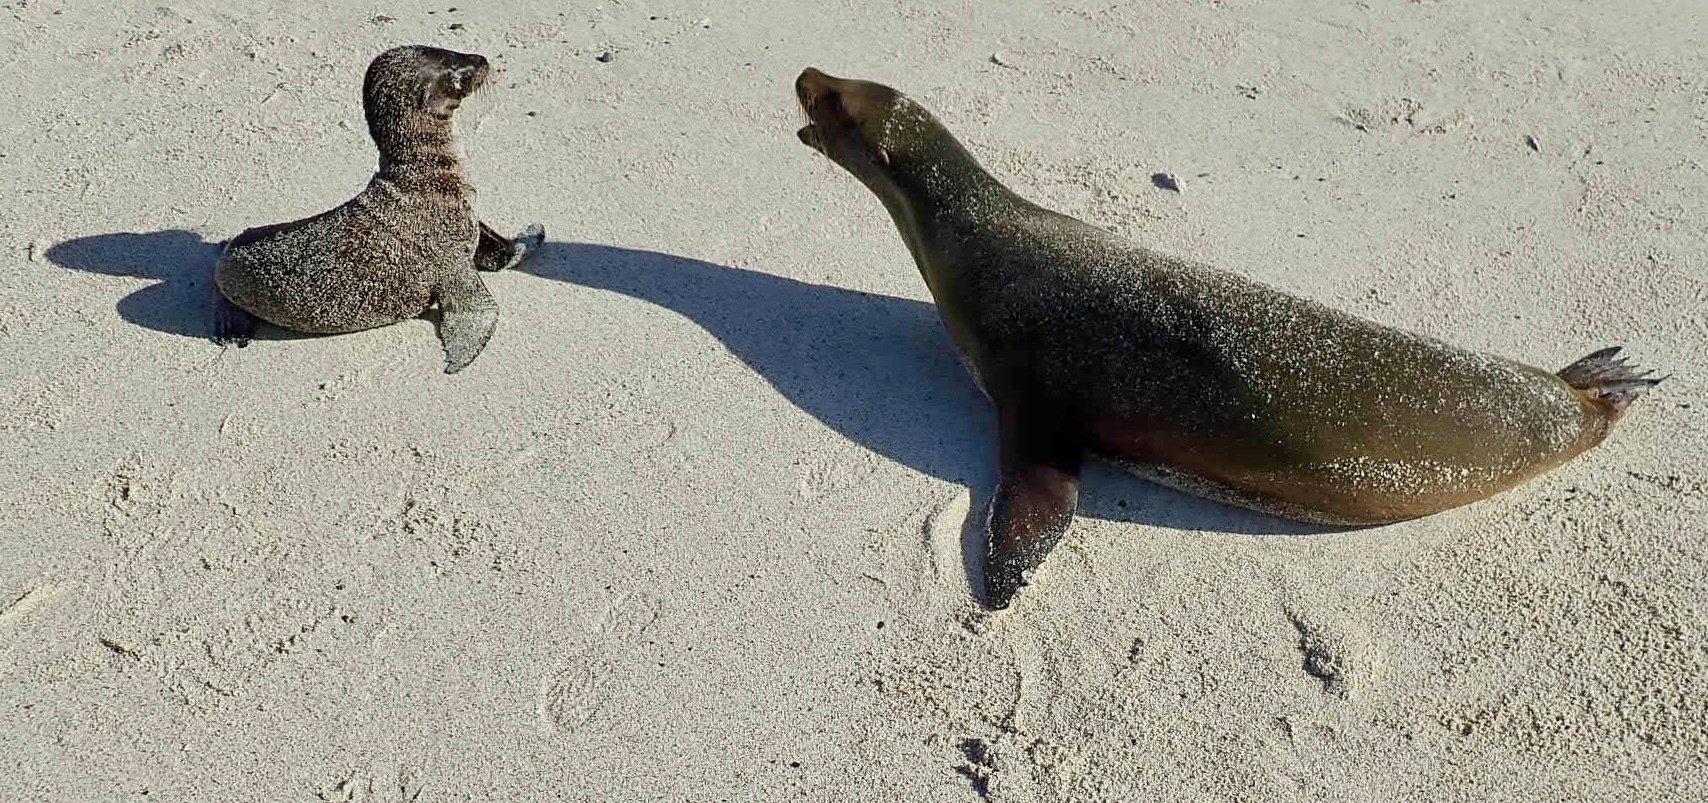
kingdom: Animalia
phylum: Chordata
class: Mammalia
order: Carnivora
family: Otariidae
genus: Zalophus
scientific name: Zalophus wollebaeki
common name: Galapagos sea lion
